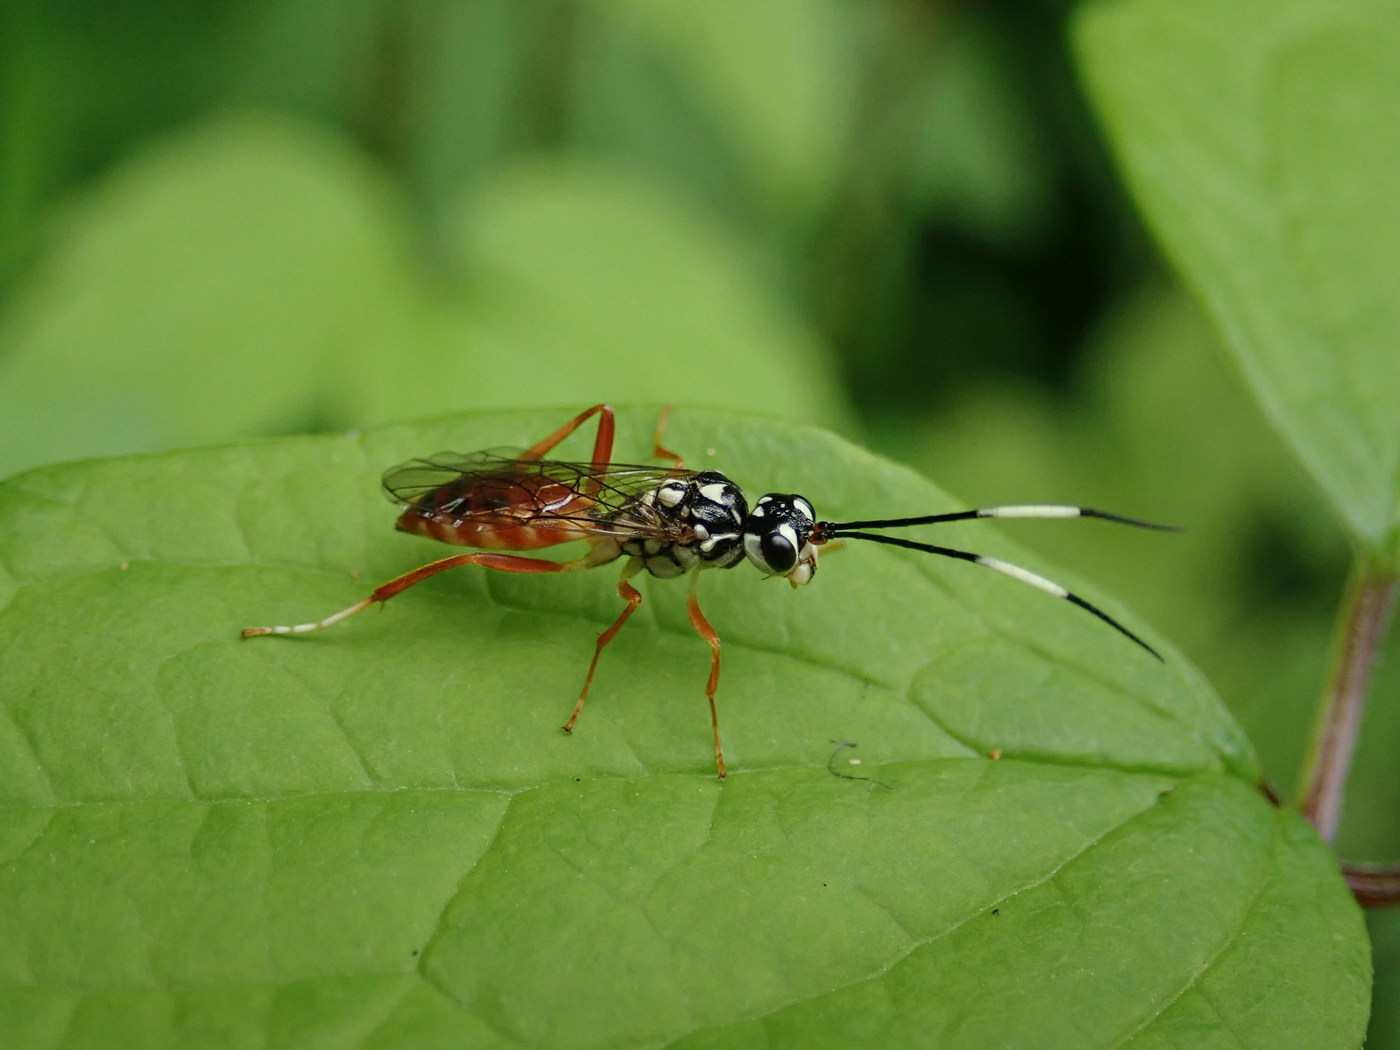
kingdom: Animalia
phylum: Arthropoda
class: Insecta
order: Hymenoptera
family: Trigonalidae
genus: Orthogonalys
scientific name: Orthogonalys pulchella
